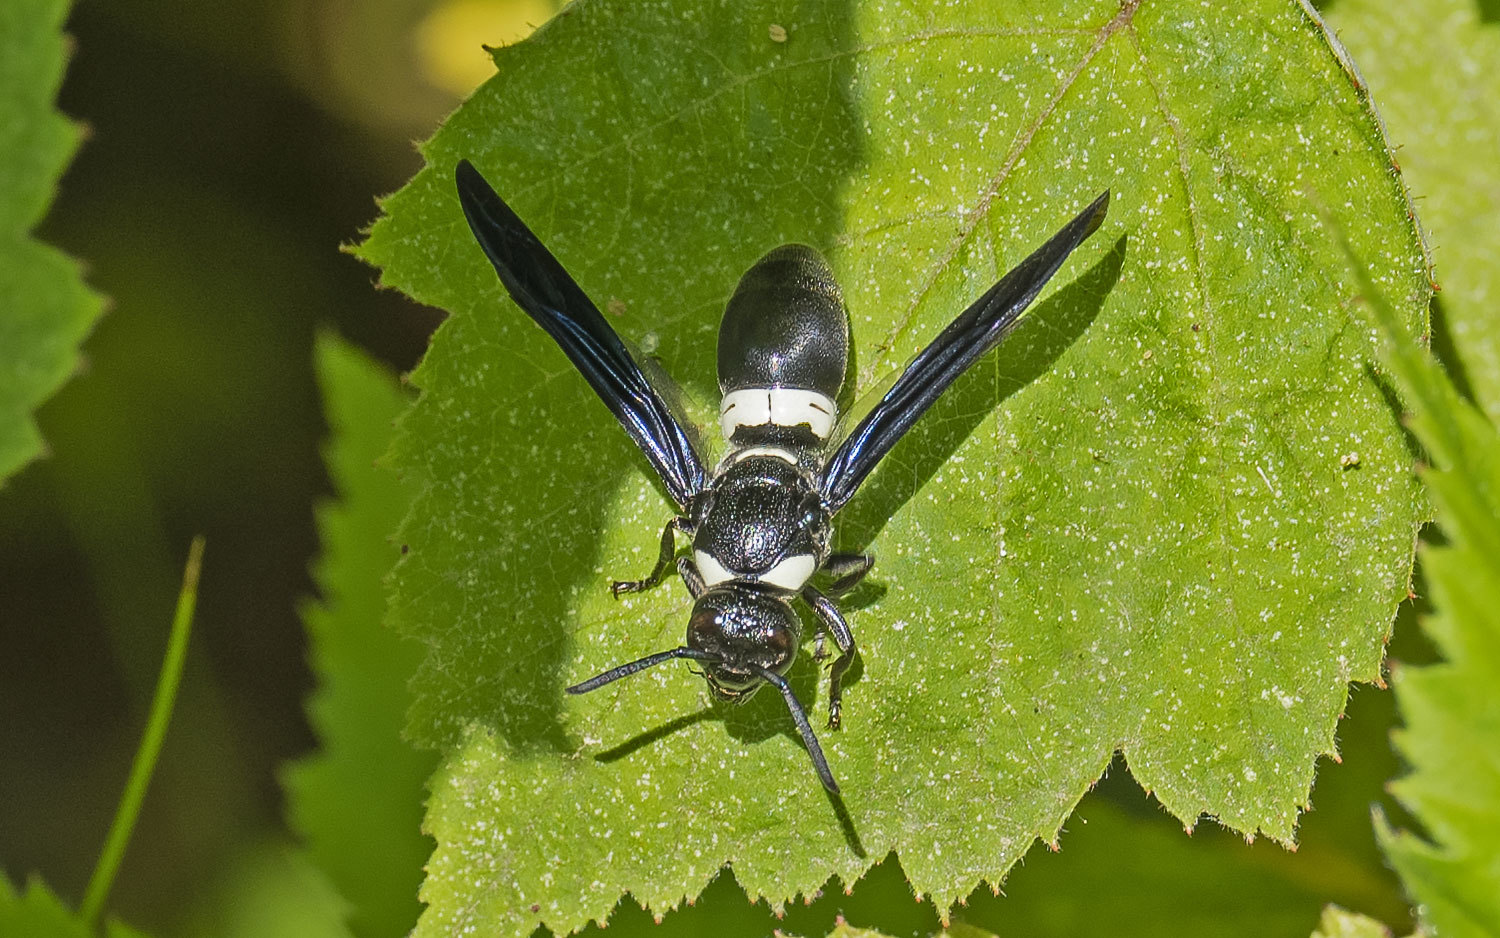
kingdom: Animalia
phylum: Arthropoda
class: Insecta
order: Hymenoptera
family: Eumenidae
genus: Monobia
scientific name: Monobia quadridens
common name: Four-toothed mason wasp
